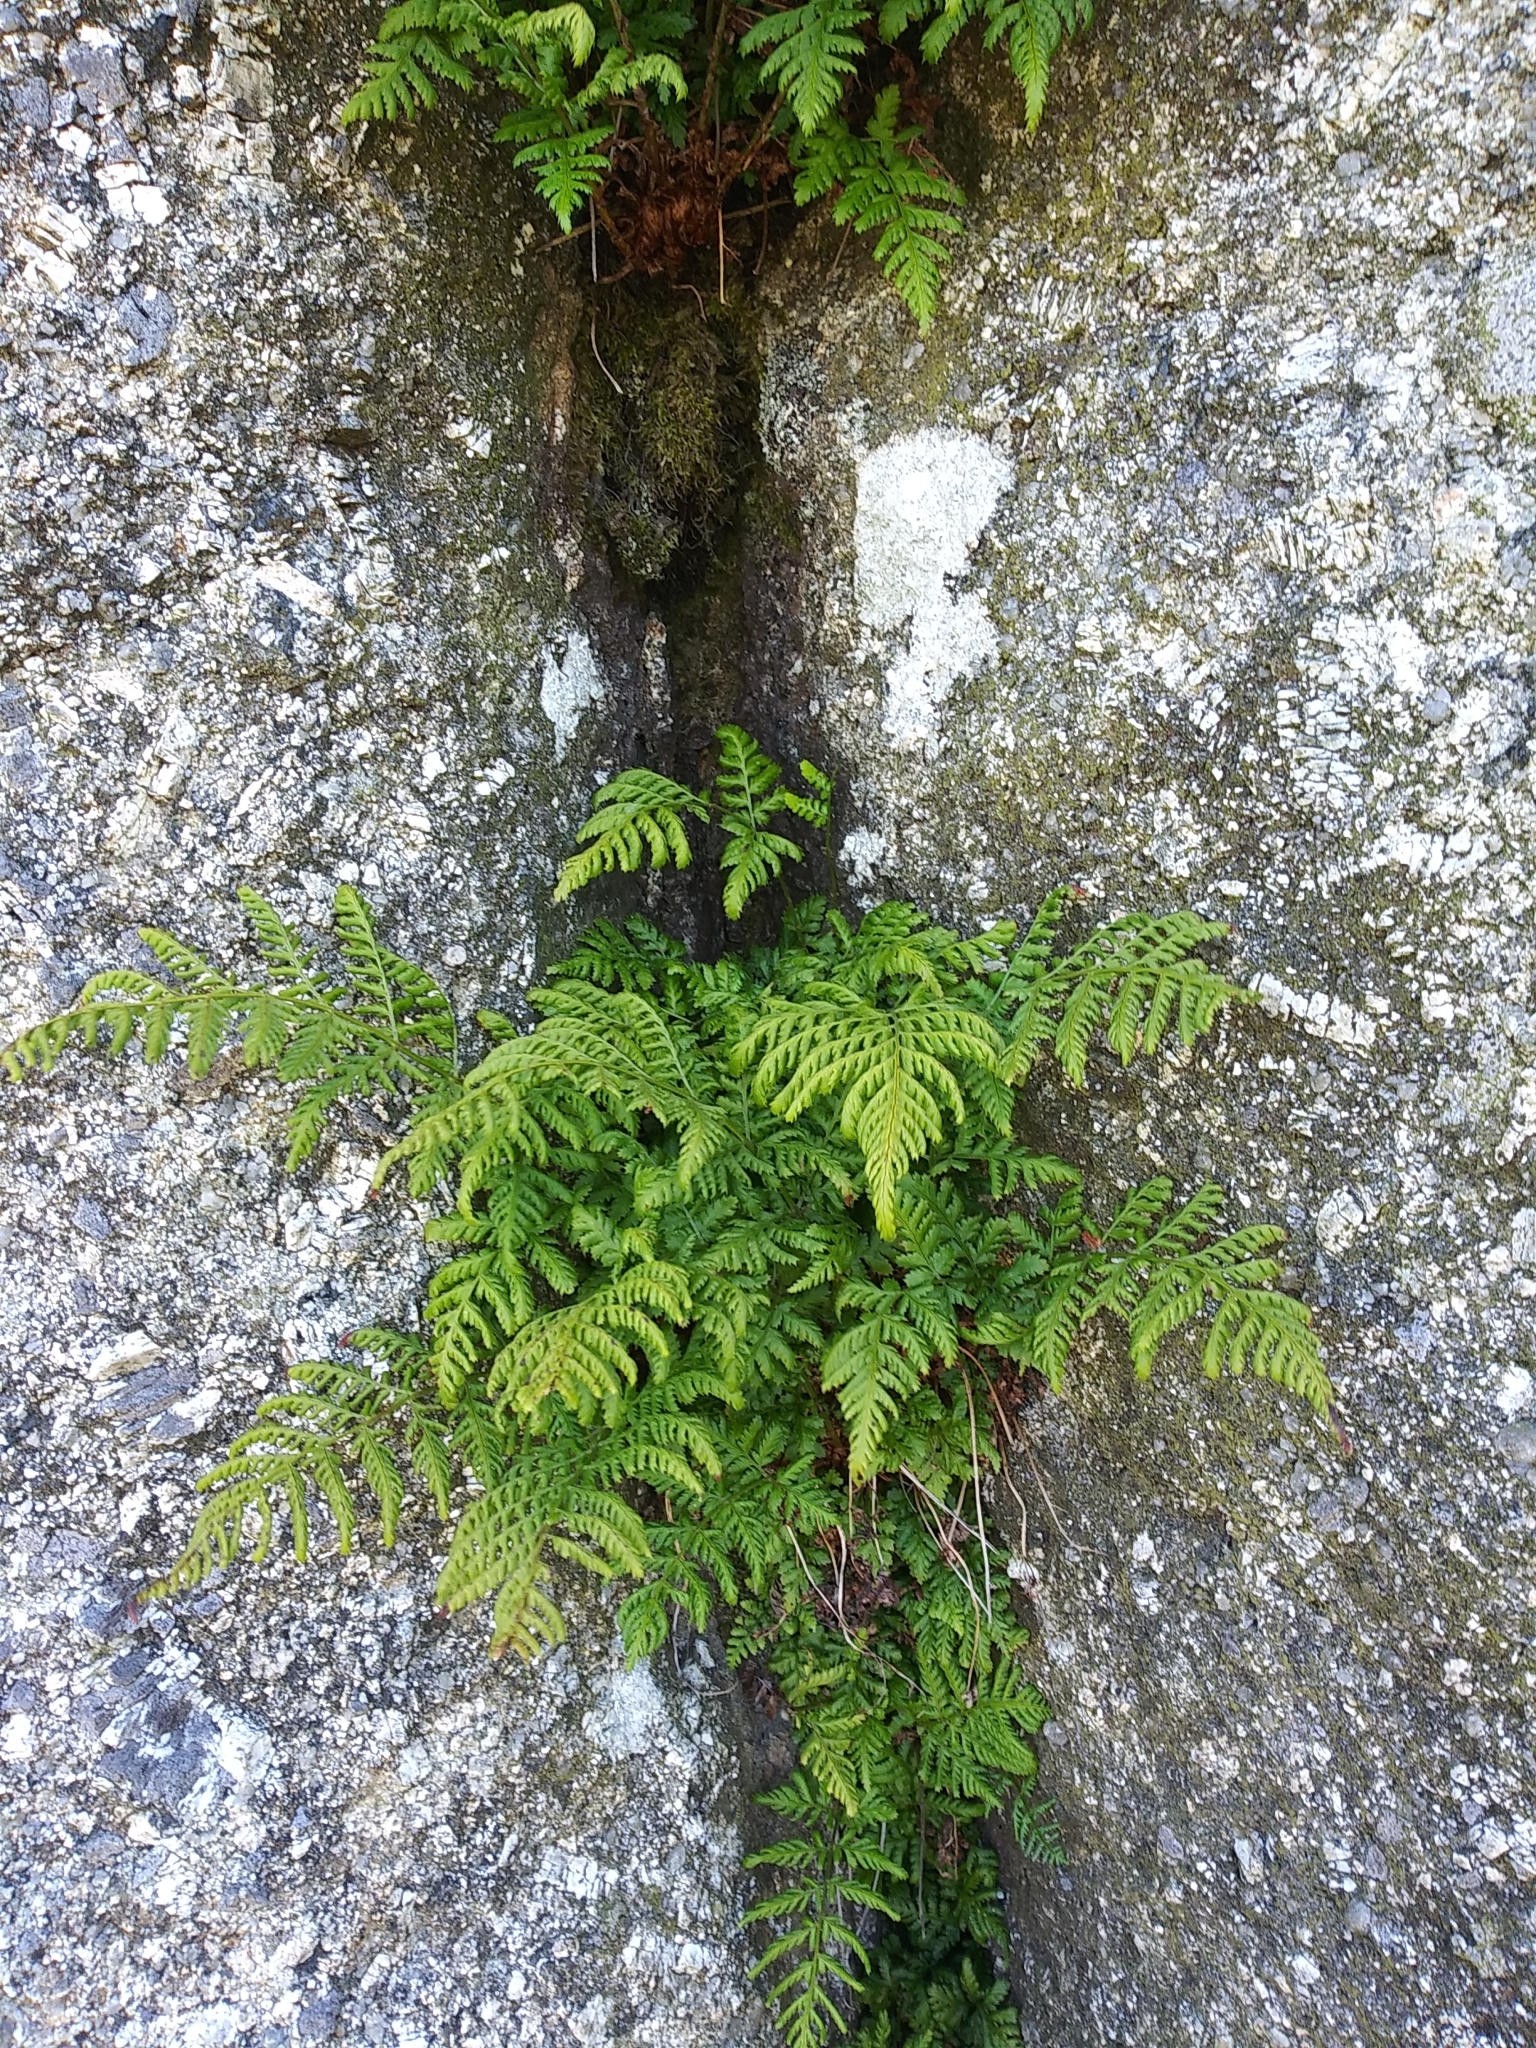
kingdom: Plantae
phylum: Tracheophyta
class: Polypodiopsida
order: Polypodiales
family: Dryopteridaceae
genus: Dryopteris
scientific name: Dryopteris dilatata
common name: Broad buckler-fern
